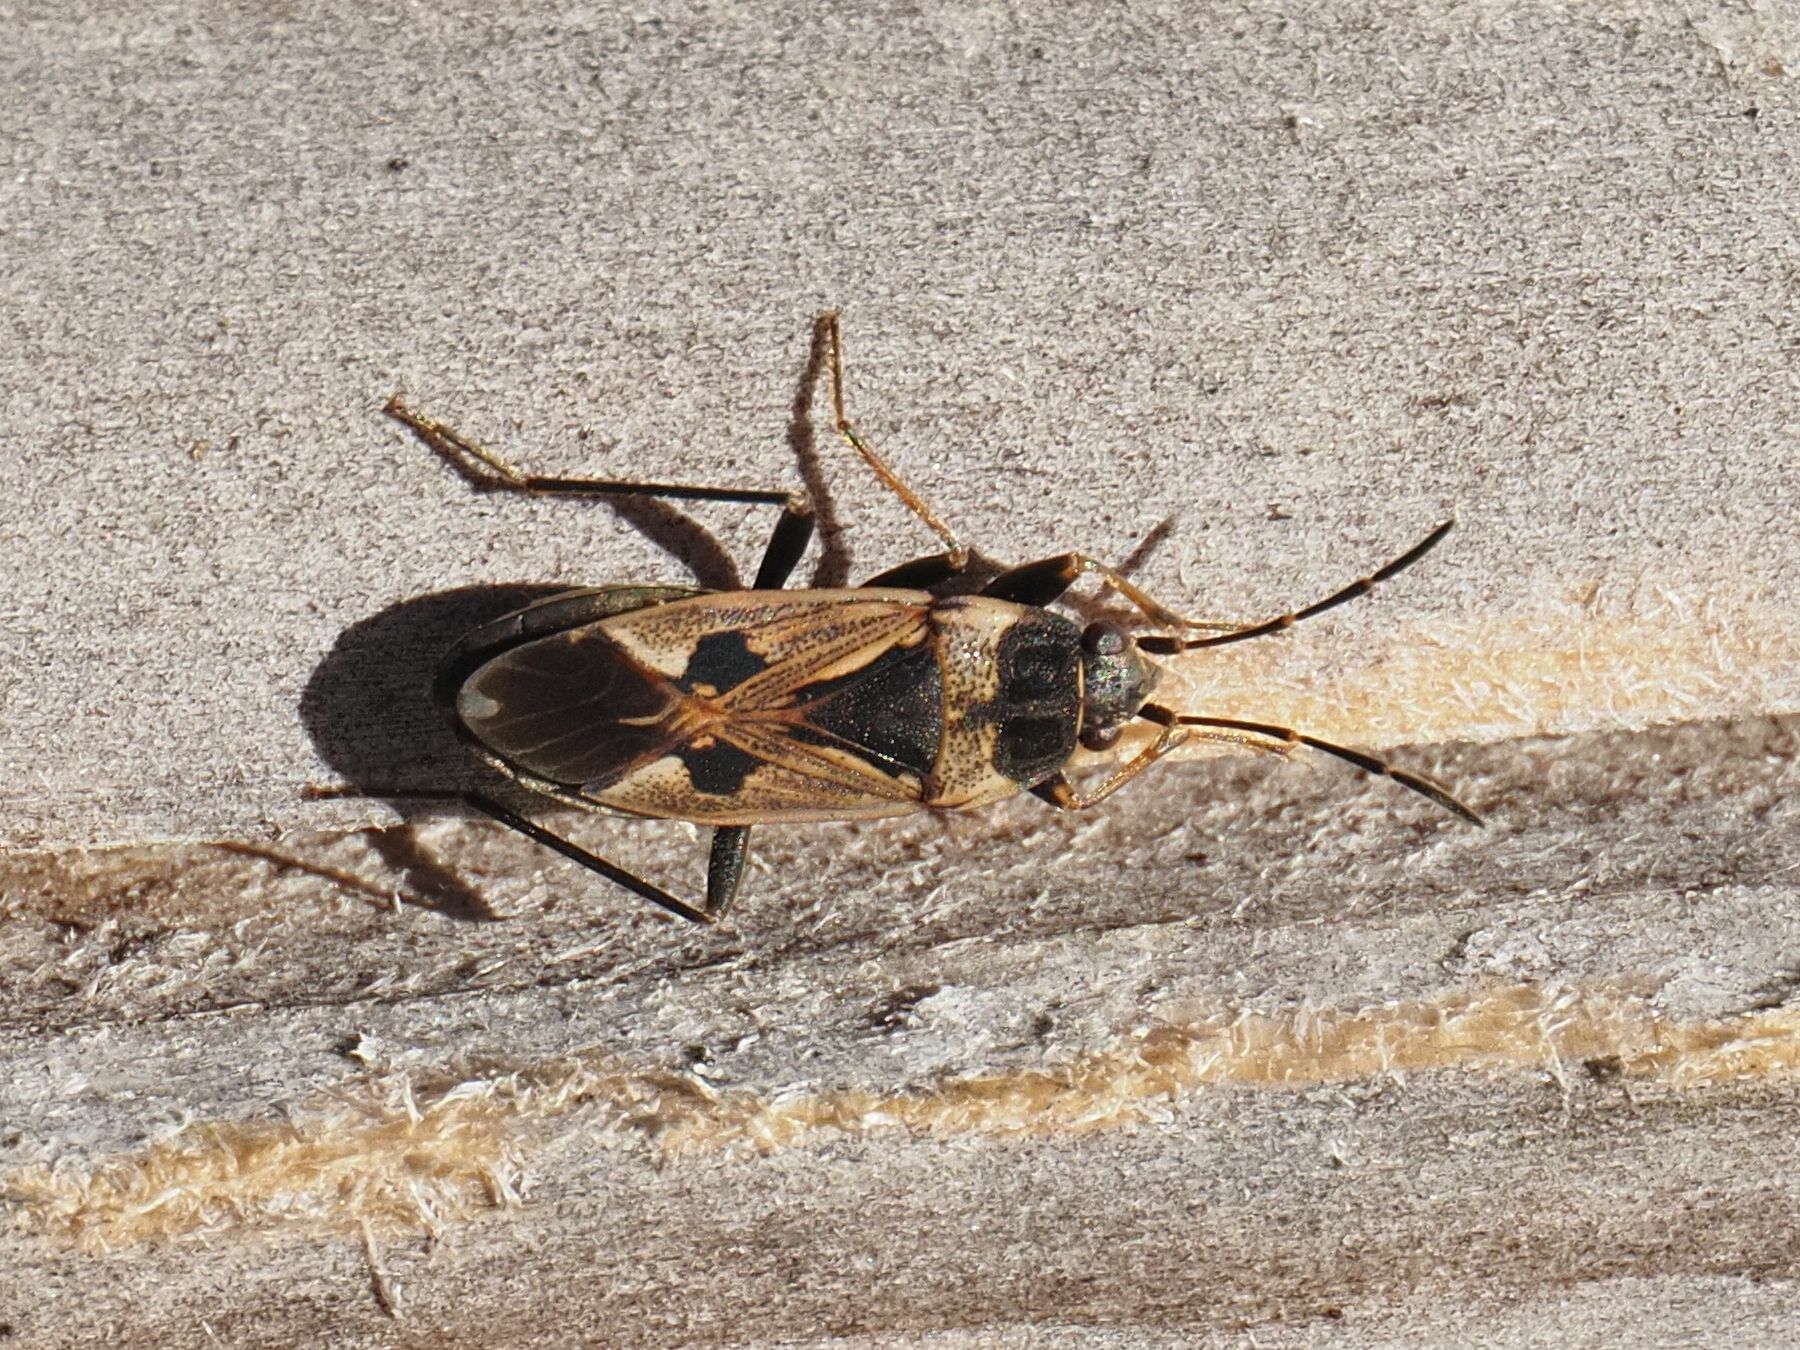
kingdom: Animalia
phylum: Arthropoda
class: Insecta
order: Hemiptera
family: Rhyparochromidae
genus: Rhyparochromus
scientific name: Rhyparochromus vulgaris
